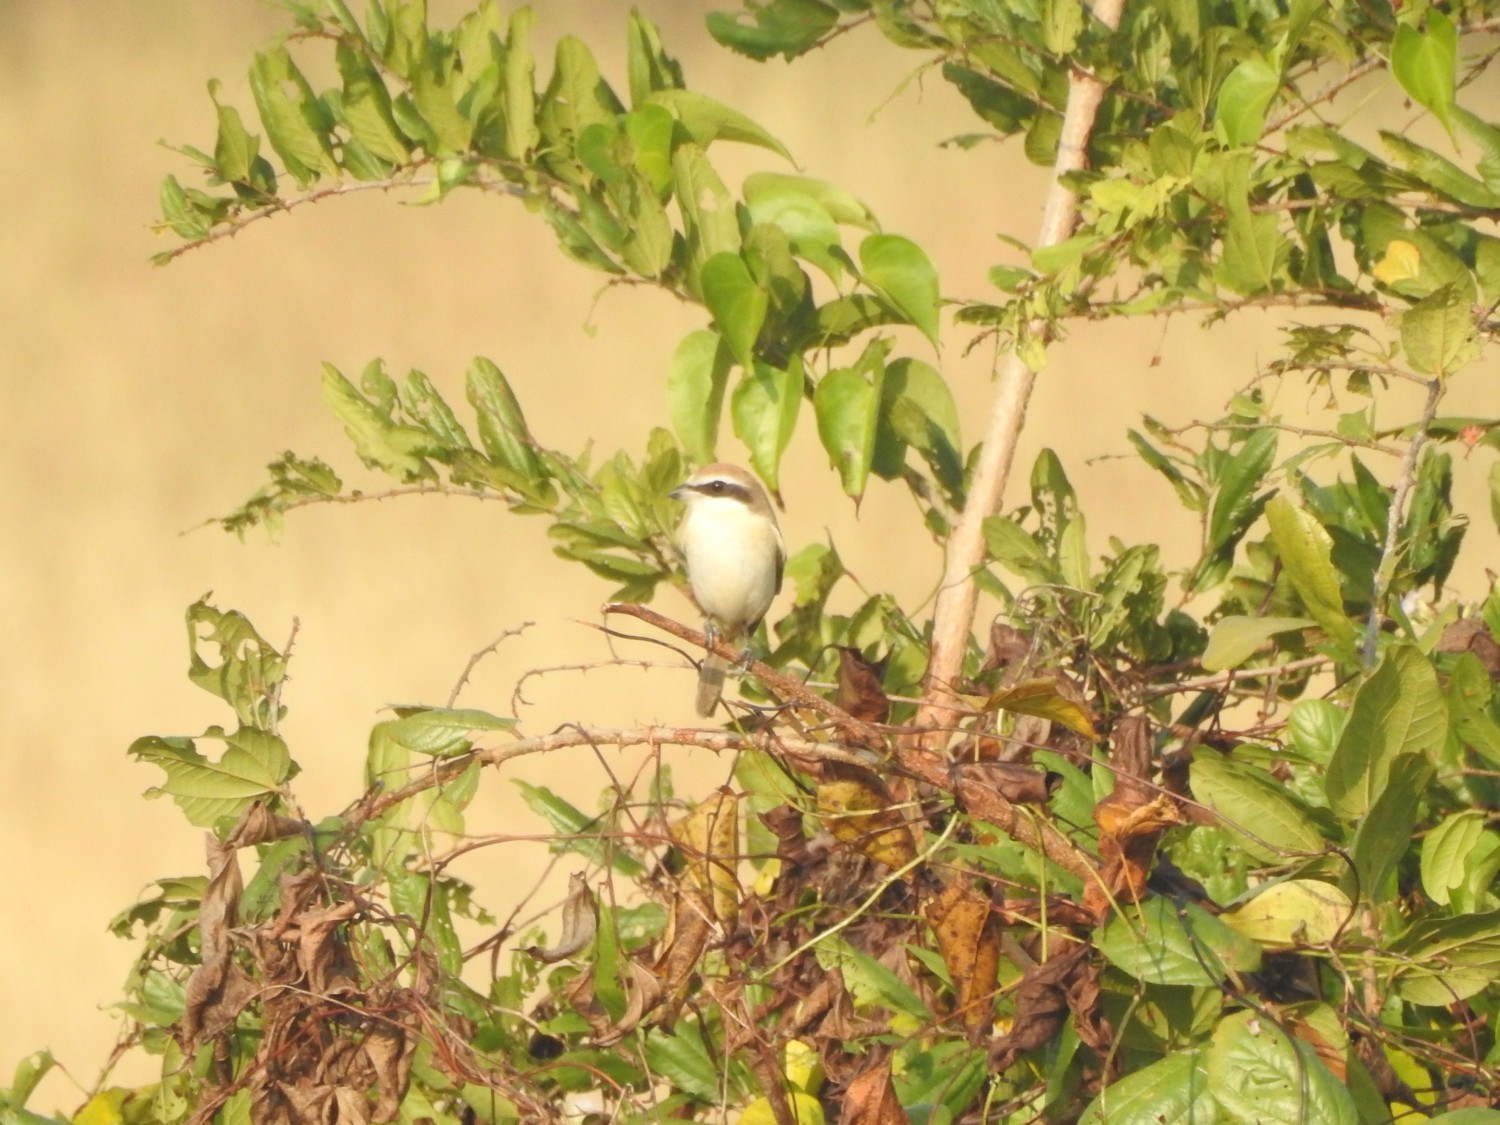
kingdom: Animalia
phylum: Chordata
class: Aves
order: Passeriformes
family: Laniidae
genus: Lanius
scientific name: Lanius cristatus
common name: Brown shrike
